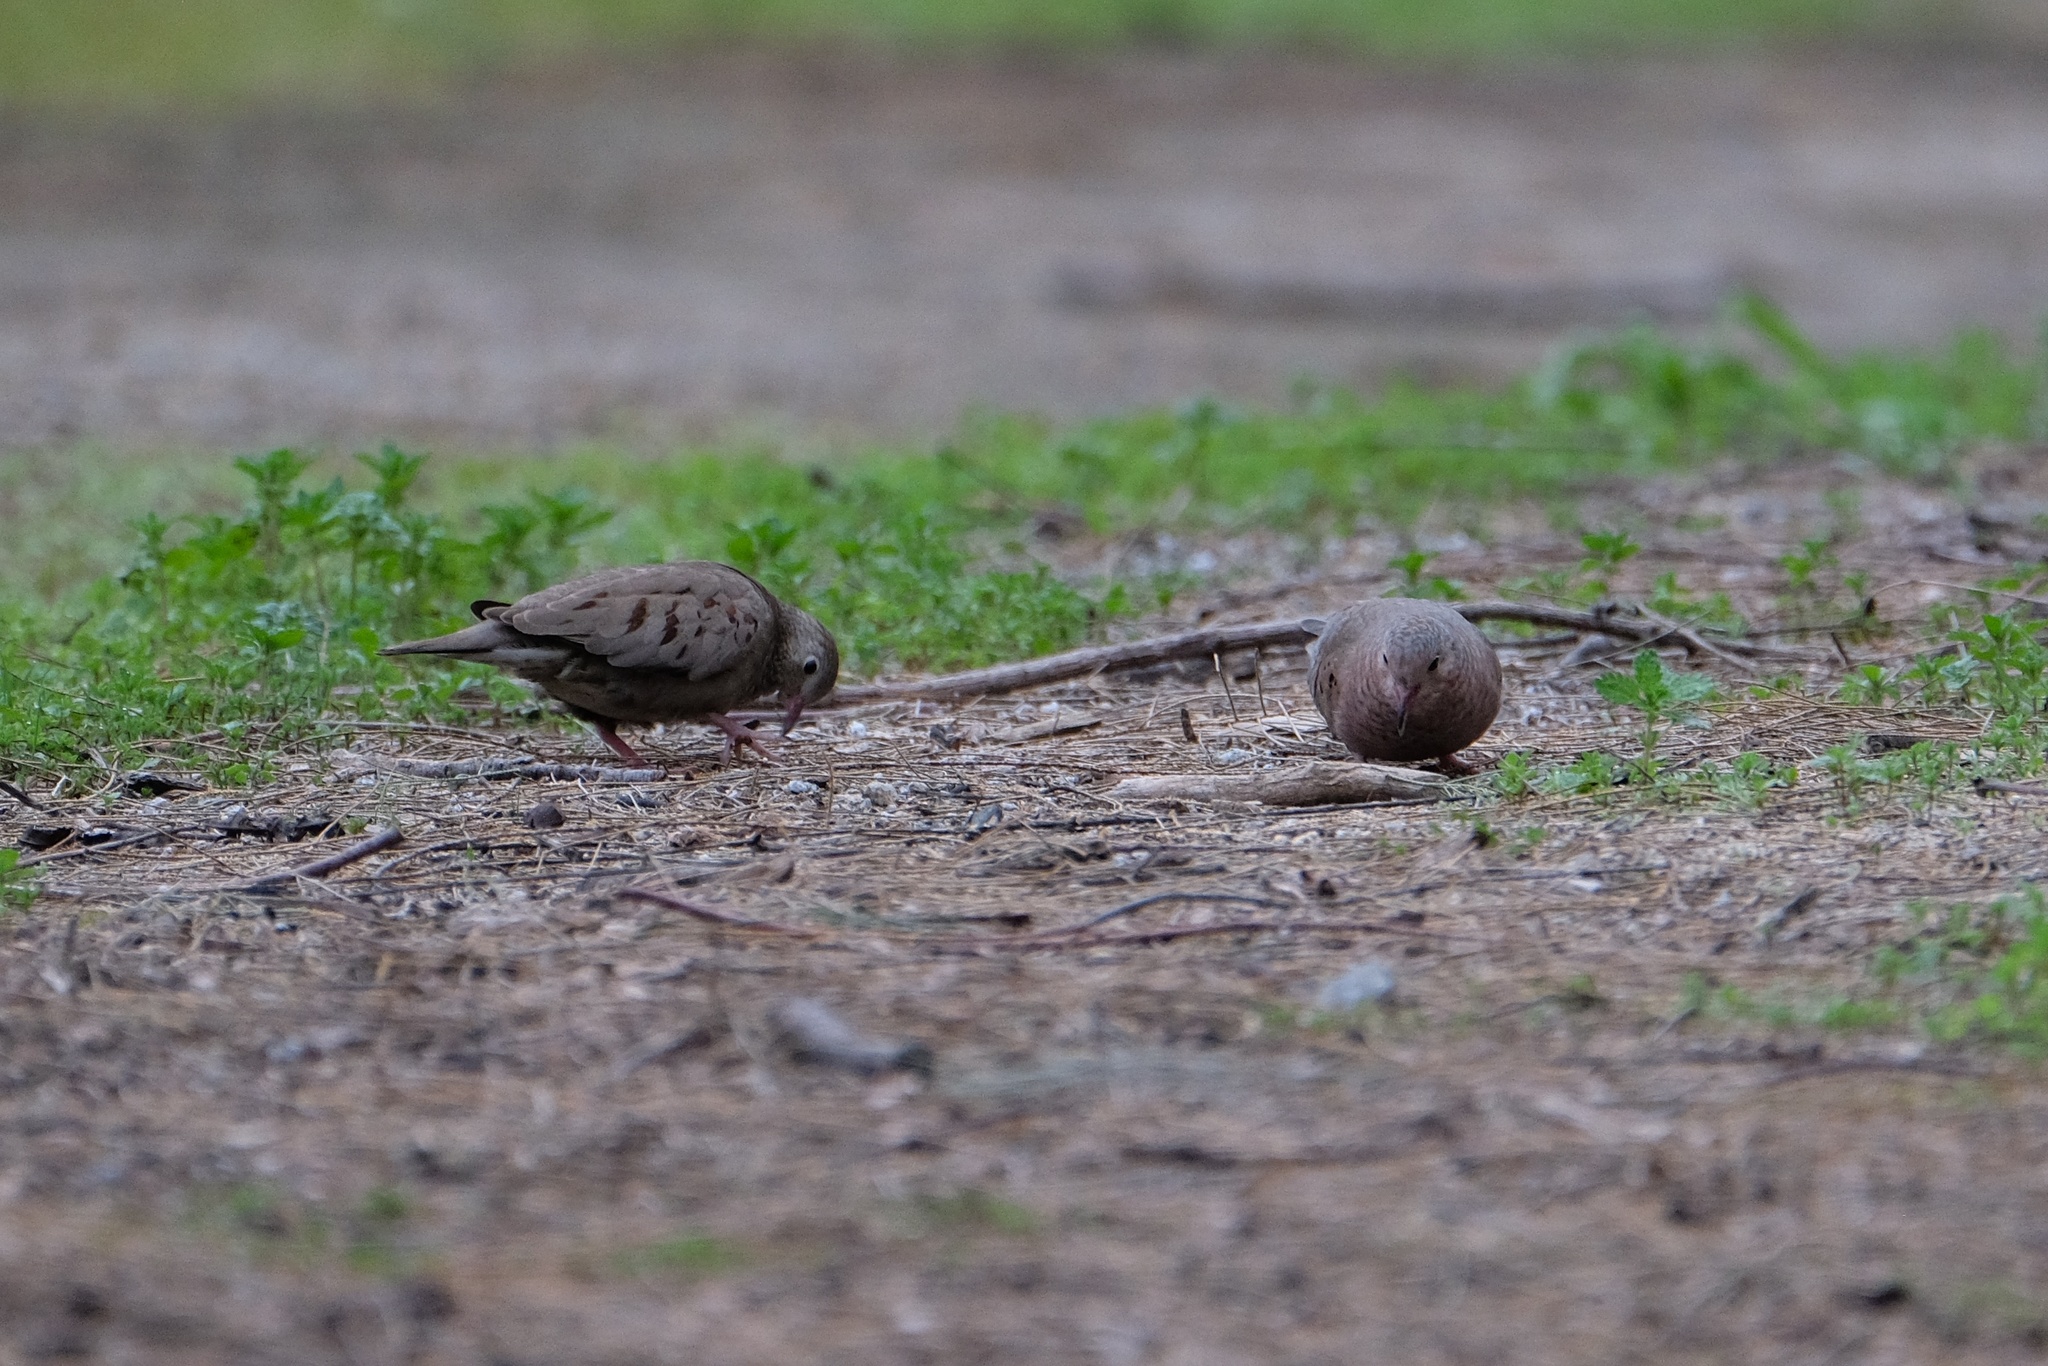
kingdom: Animalia
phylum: Chordata
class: Aves
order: Columbiformes
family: Columbidae
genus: Columbina
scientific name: Columbina passerina
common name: Common ground-dove
